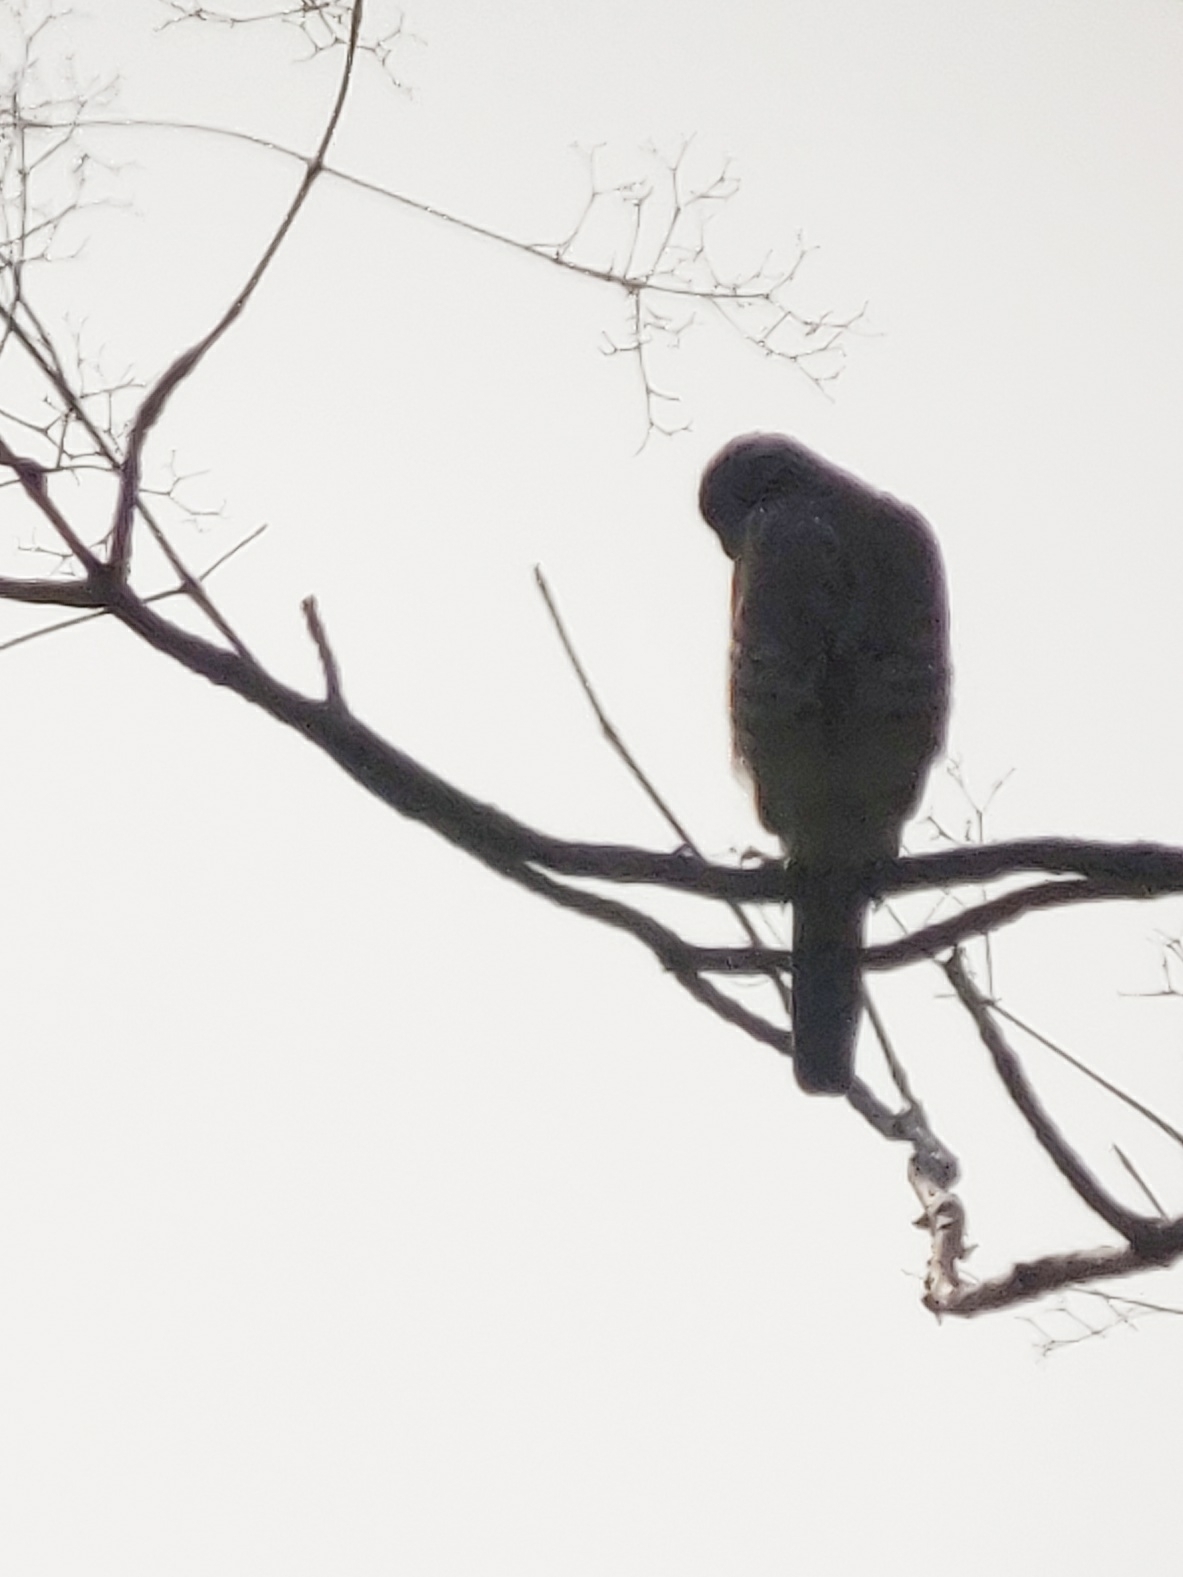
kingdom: Animalia
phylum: Chordata
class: Aves
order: Accipitriformes
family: Accipitridae
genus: Accipiter
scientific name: Accipiter badius
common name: Shikra
